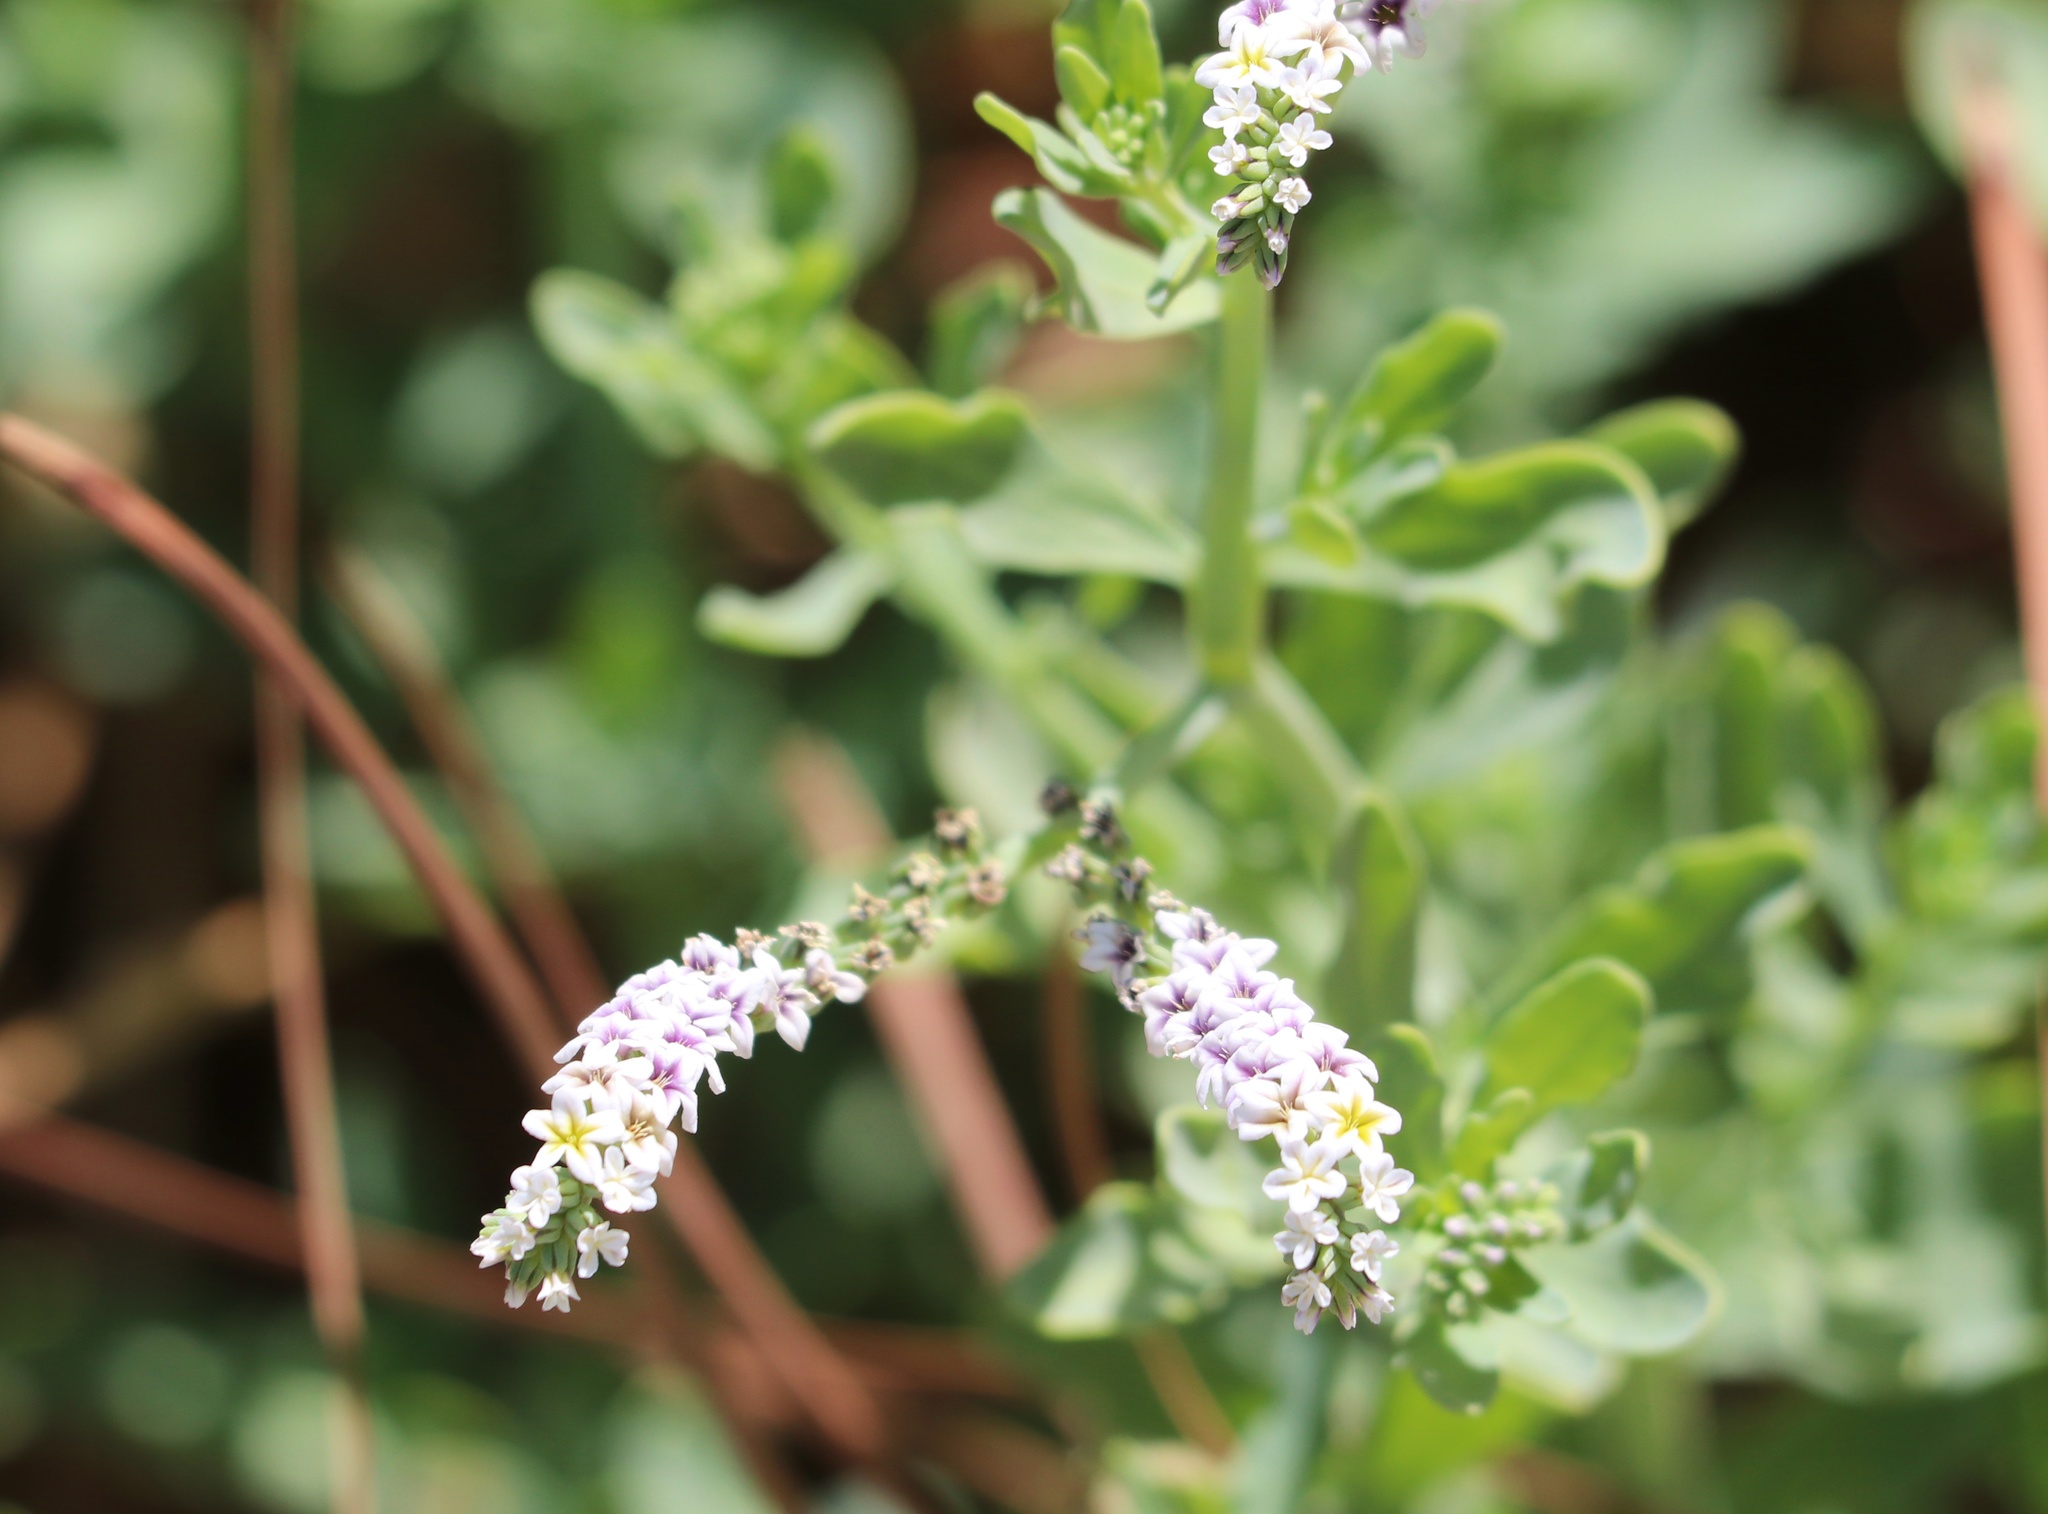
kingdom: Plantae
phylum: Tracheophyta
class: Magnoliopsida
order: Boraginales
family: Heliotropiaceae
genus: Heliotropium
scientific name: Heliotropium curassavicum
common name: Seaside heliotrope
